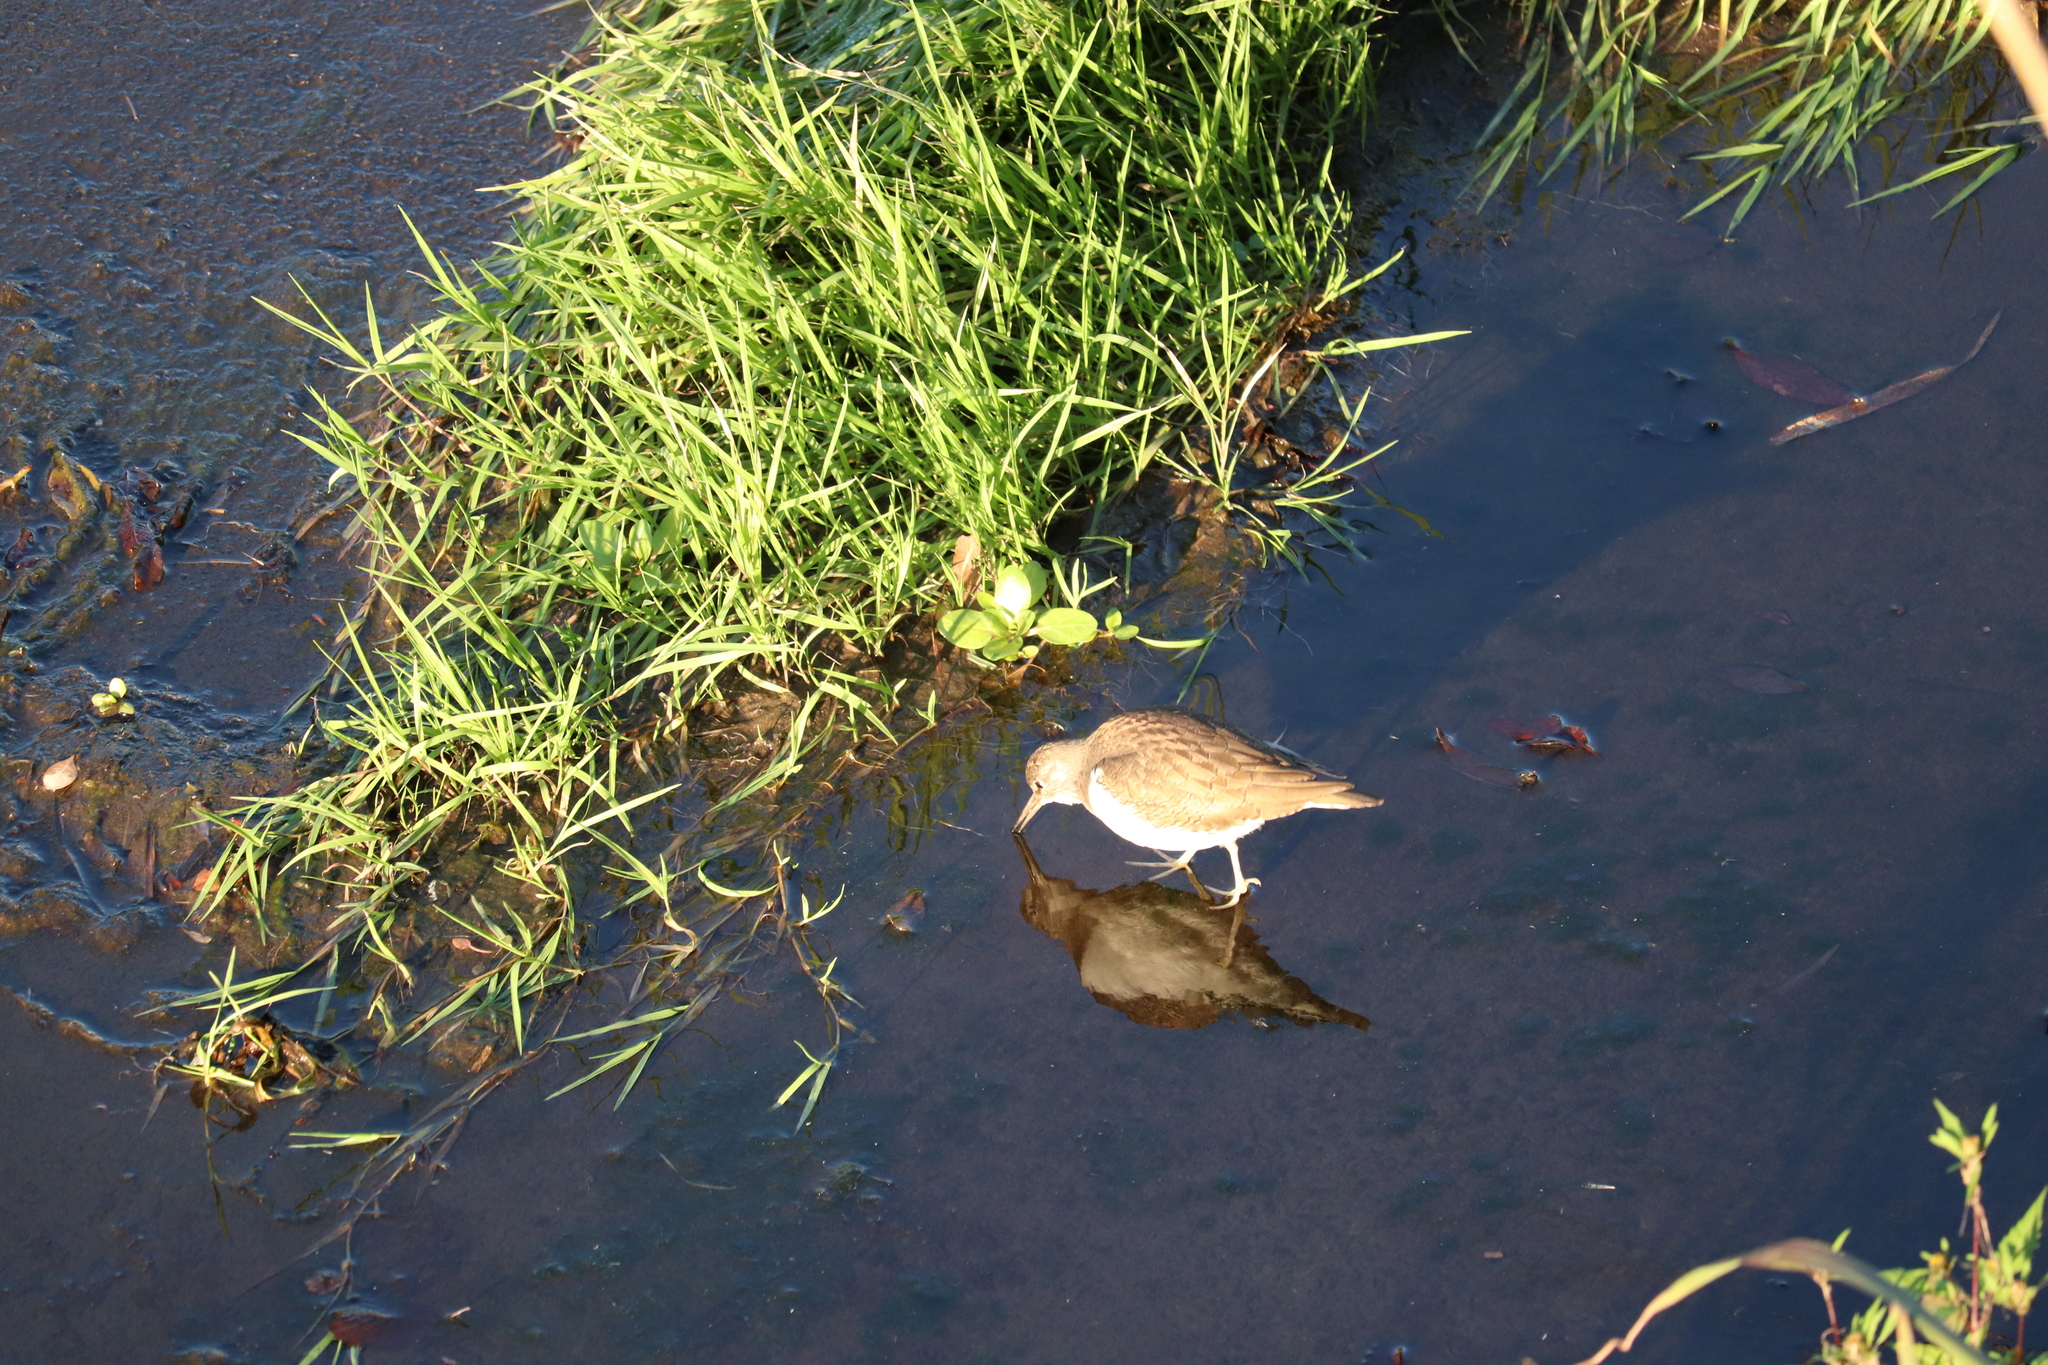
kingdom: Animalia
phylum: Chordata
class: Aves
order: Charadriiformes
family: Scolopacidae
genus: Actitis
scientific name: Actitis hypoleucos
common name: Common sandpiper
